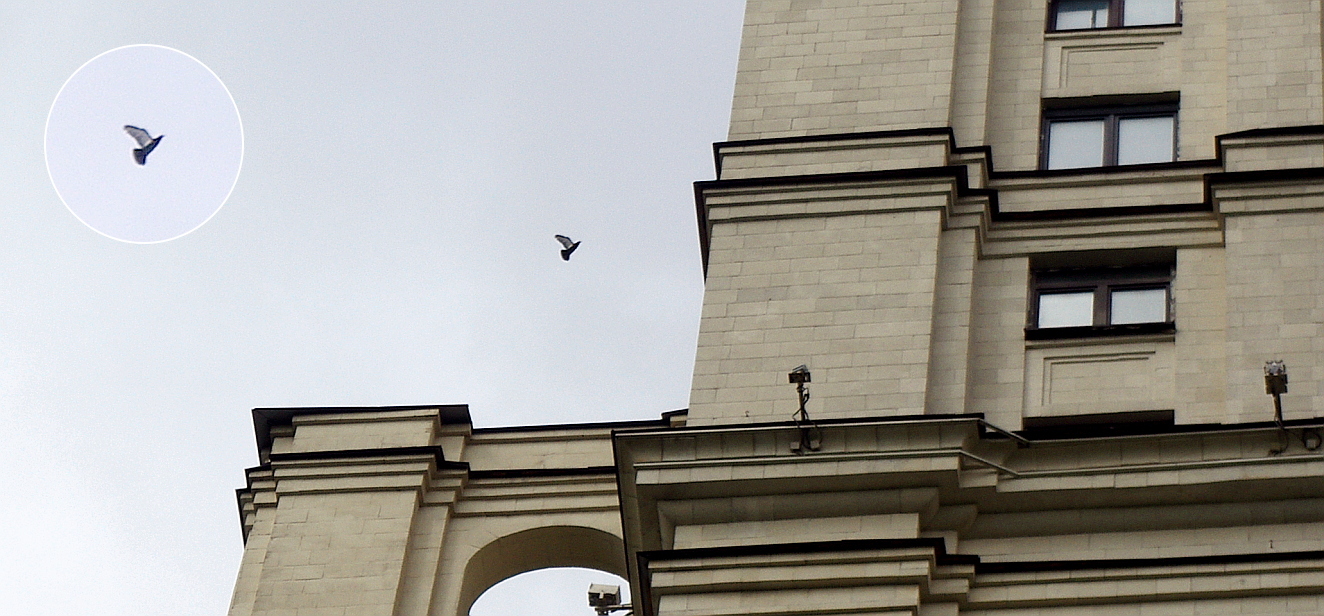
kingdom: Animalia
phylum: Chordata
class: Aves
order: Columbiformes
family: Columbidae
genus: Columba
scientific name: Columba livia
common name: Rock pigeon
